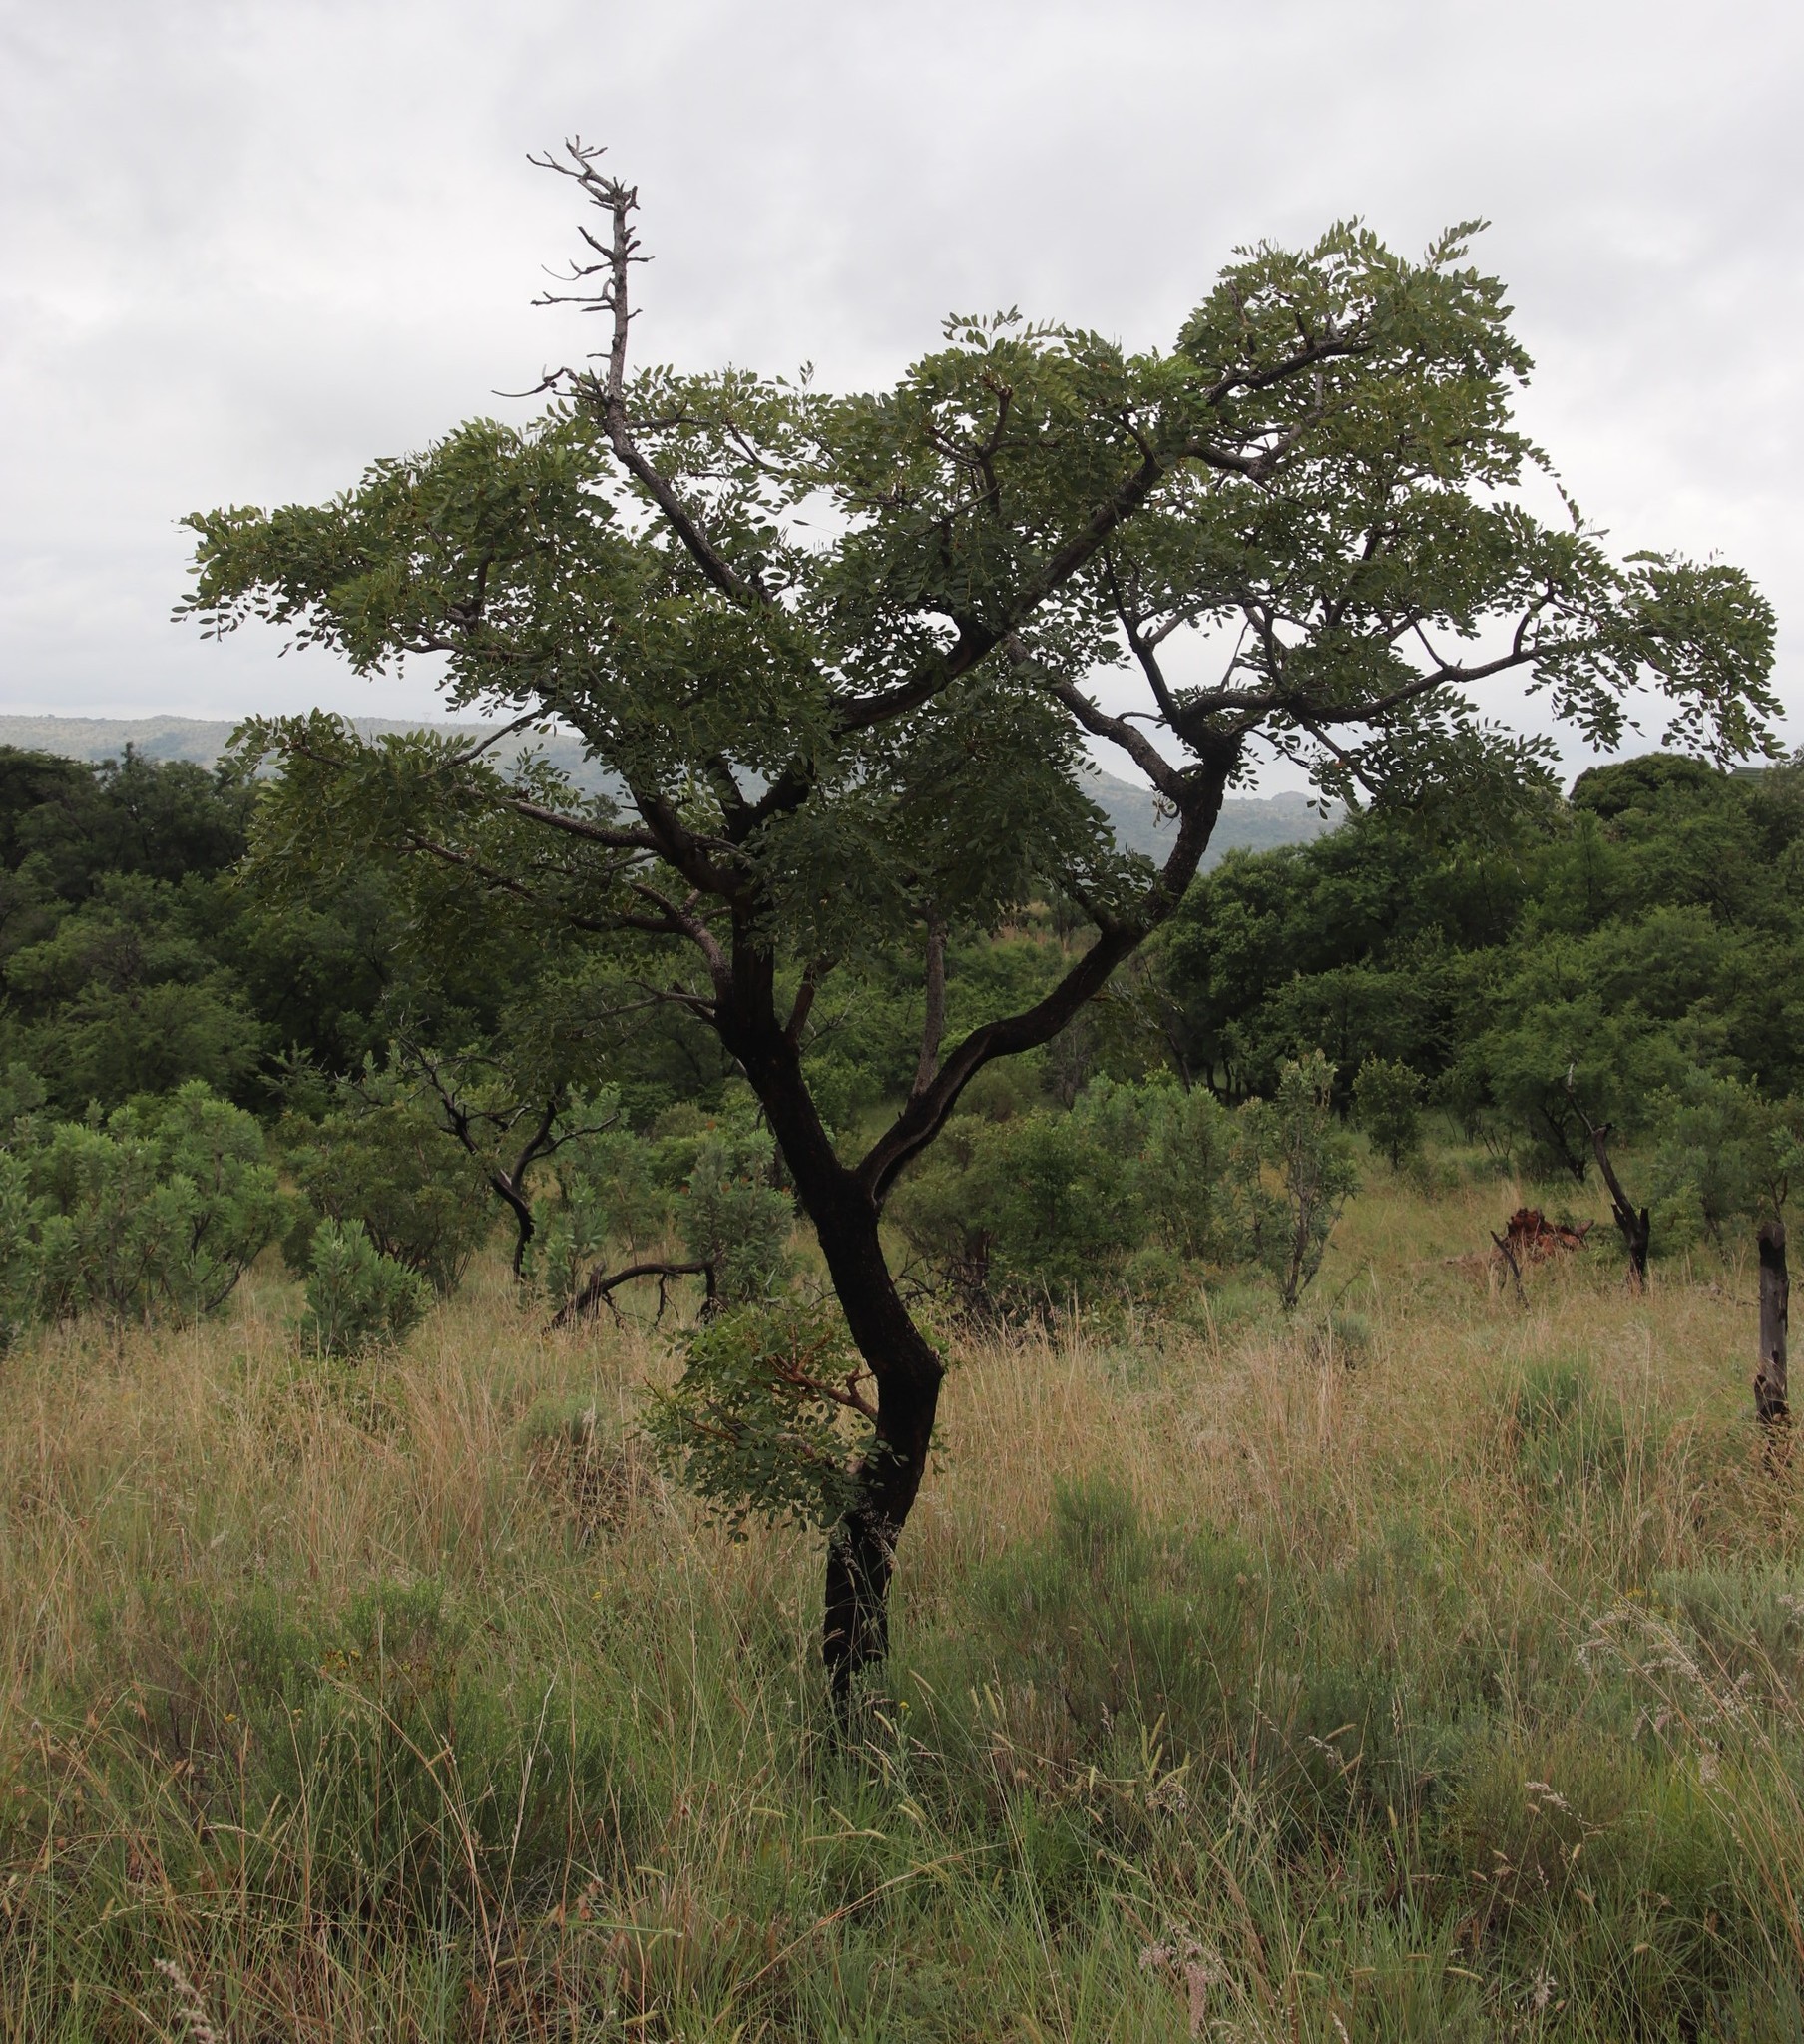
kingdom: Plantae
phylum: Tracheophyta
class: Magnoliopsida
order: Fabales
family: Fabaceae
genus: Burkea
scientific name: Burkea africana
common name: Mkalati tree
